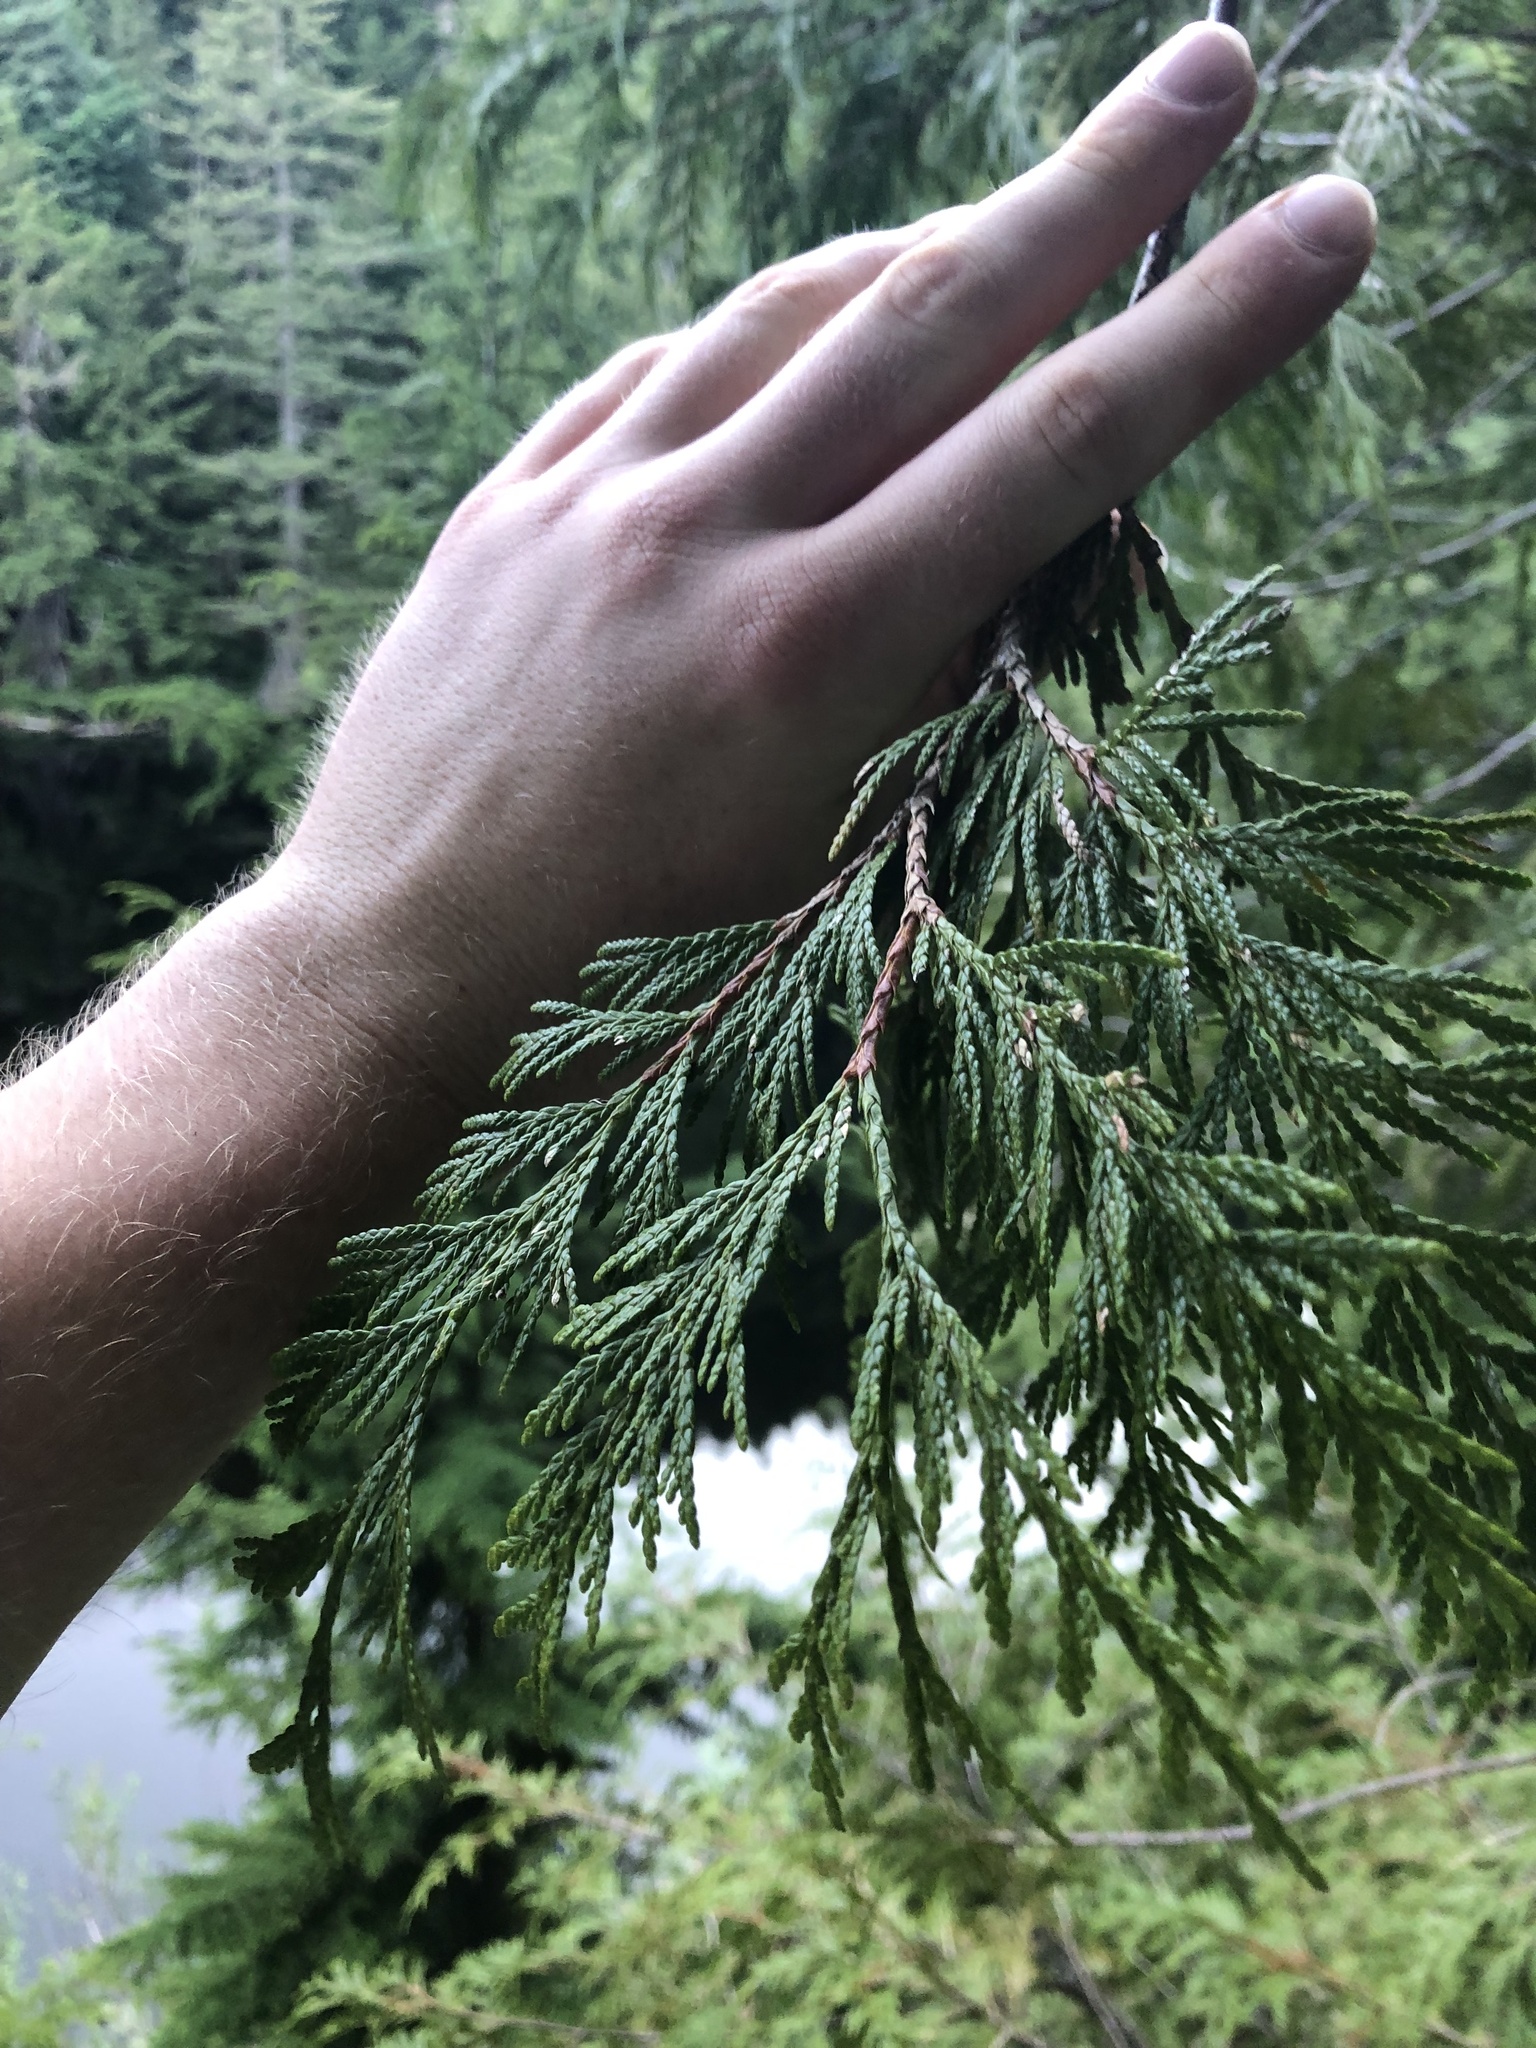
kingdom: Plantae
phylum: Tracheophyta
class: Pinopsida
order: Pinales
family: Cupressaceae
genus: Thuja
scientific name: Thuja plicata
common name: Western red-cedar
